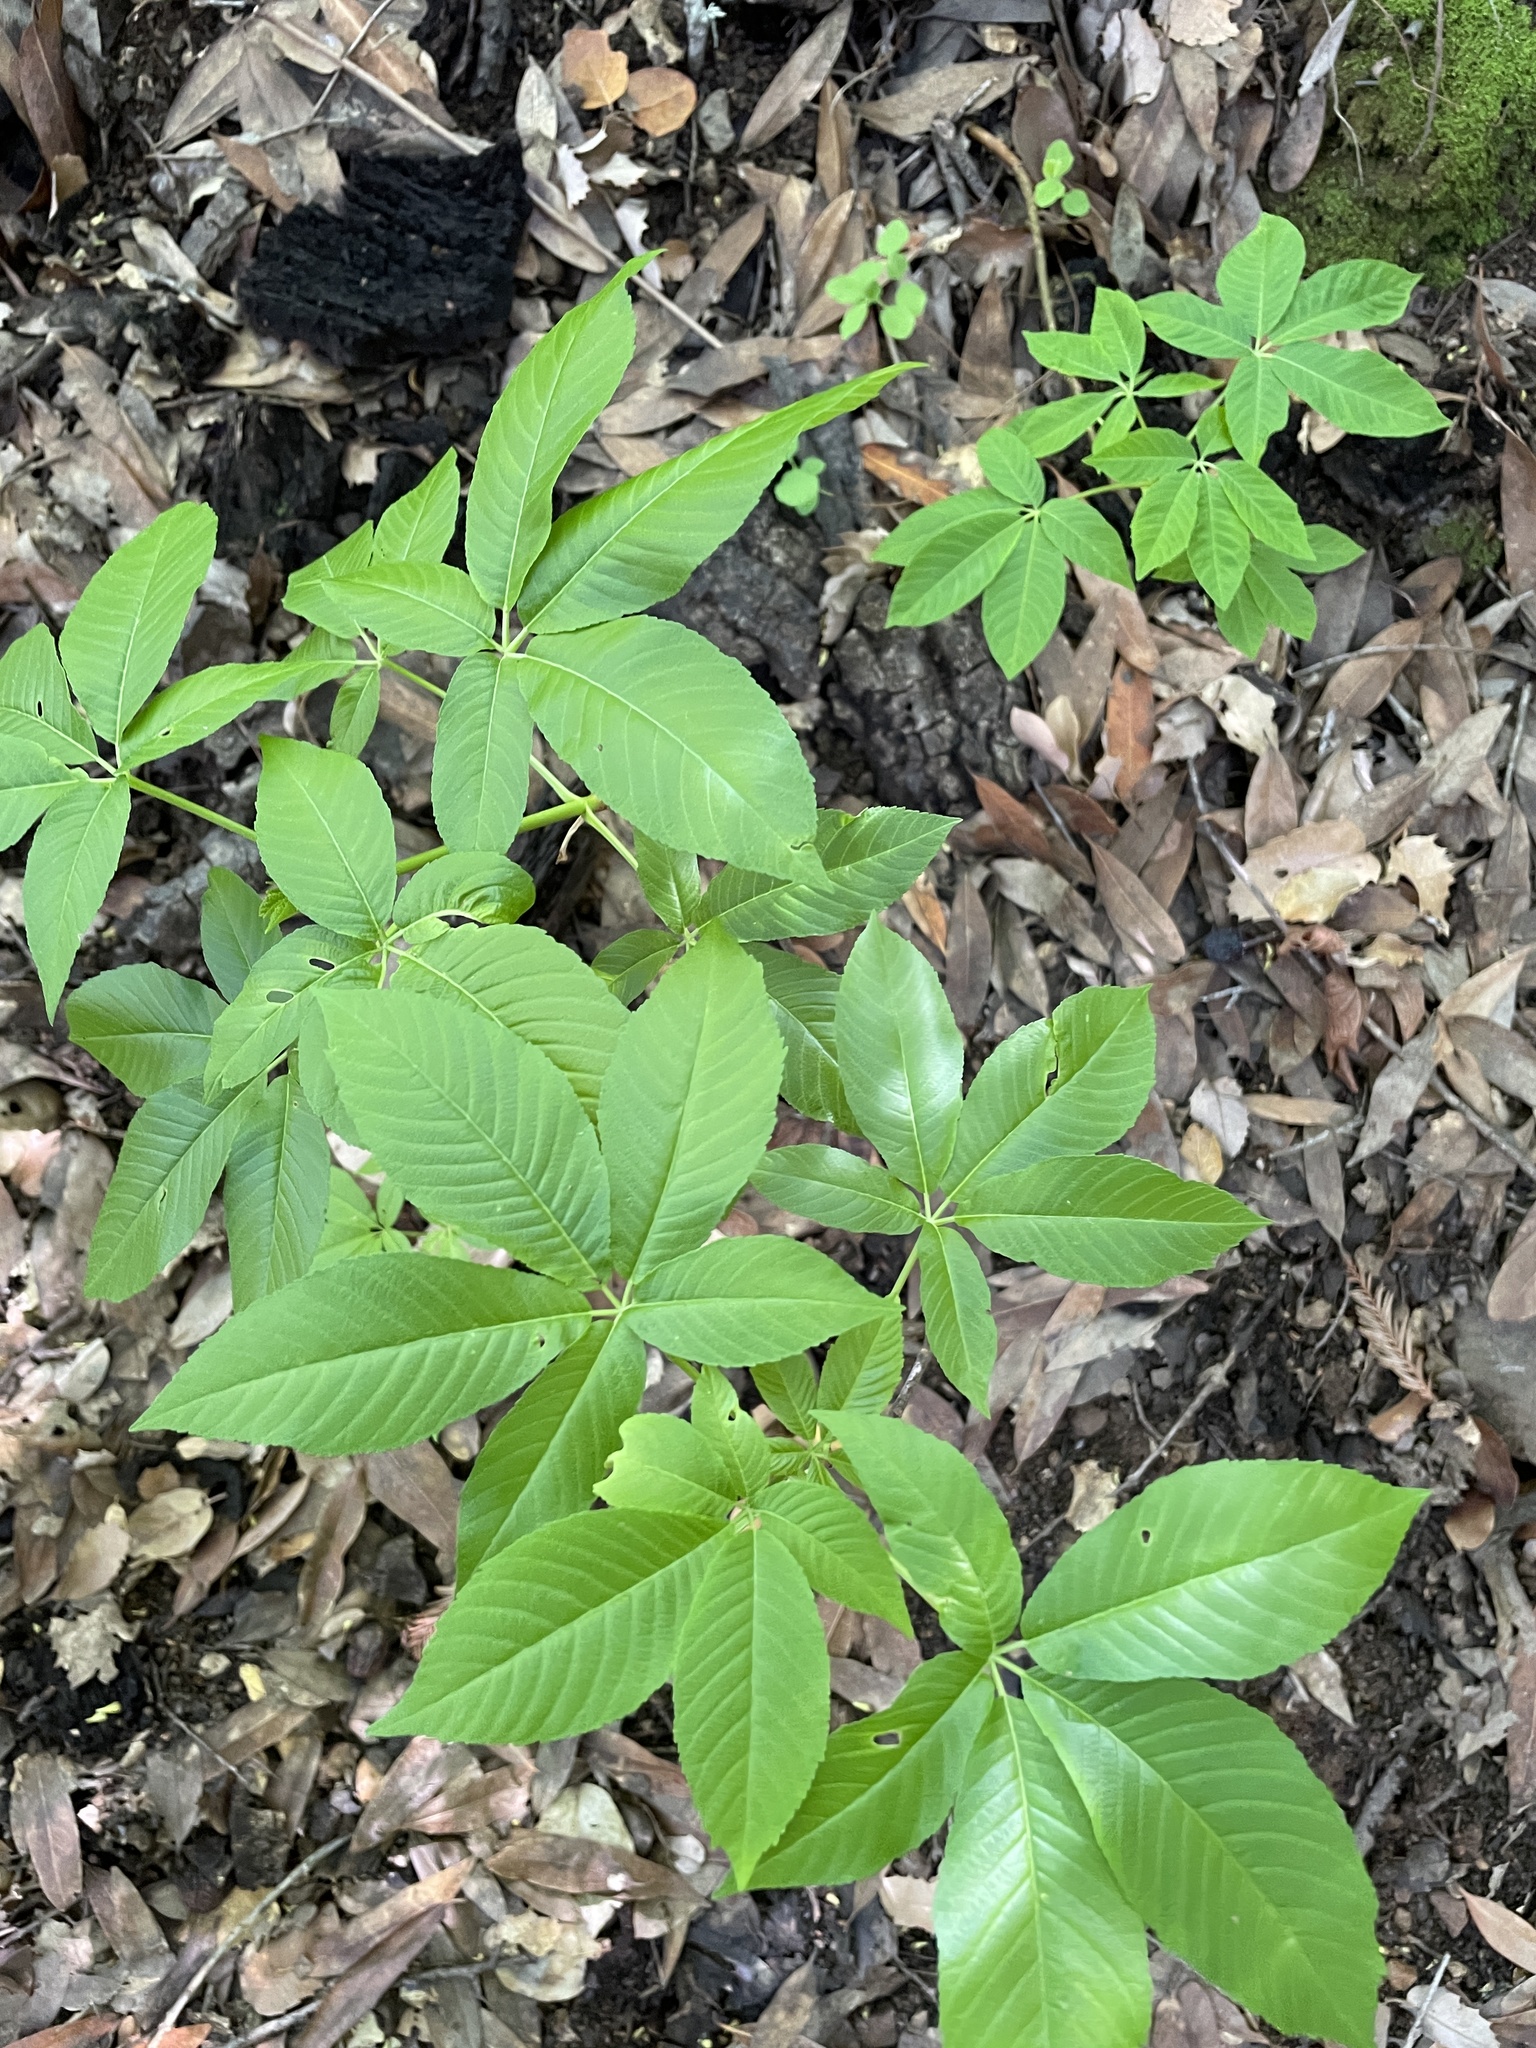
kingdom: Plantae
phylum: Tracheophyta
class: Magnoliopsida
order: Sapindales
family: Sapindaceae
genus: Aesculus
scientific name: Aesculus californica
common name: California buckeye
